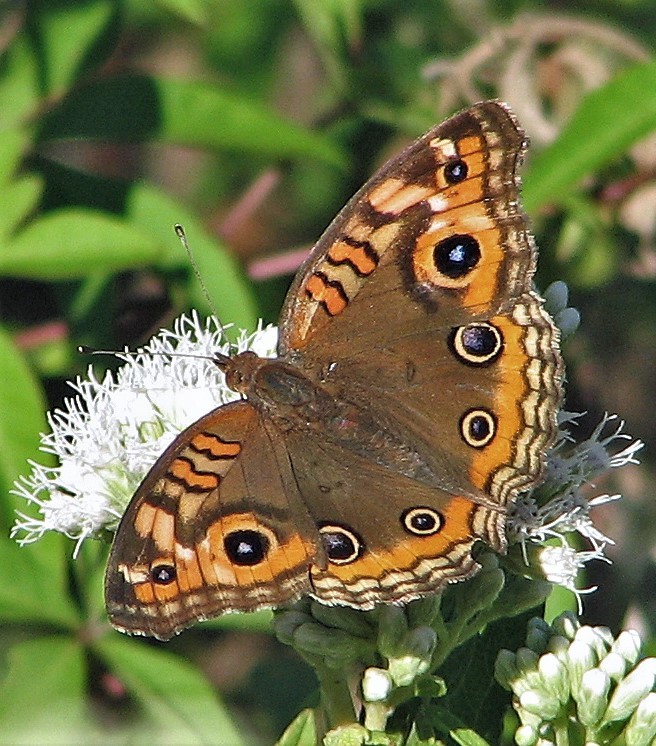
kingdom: Animalia
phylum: Arthropoda
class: Insecta
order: Lepidoptera
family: Nymphalidae
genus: Junonia
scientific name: Junonia lavinia
